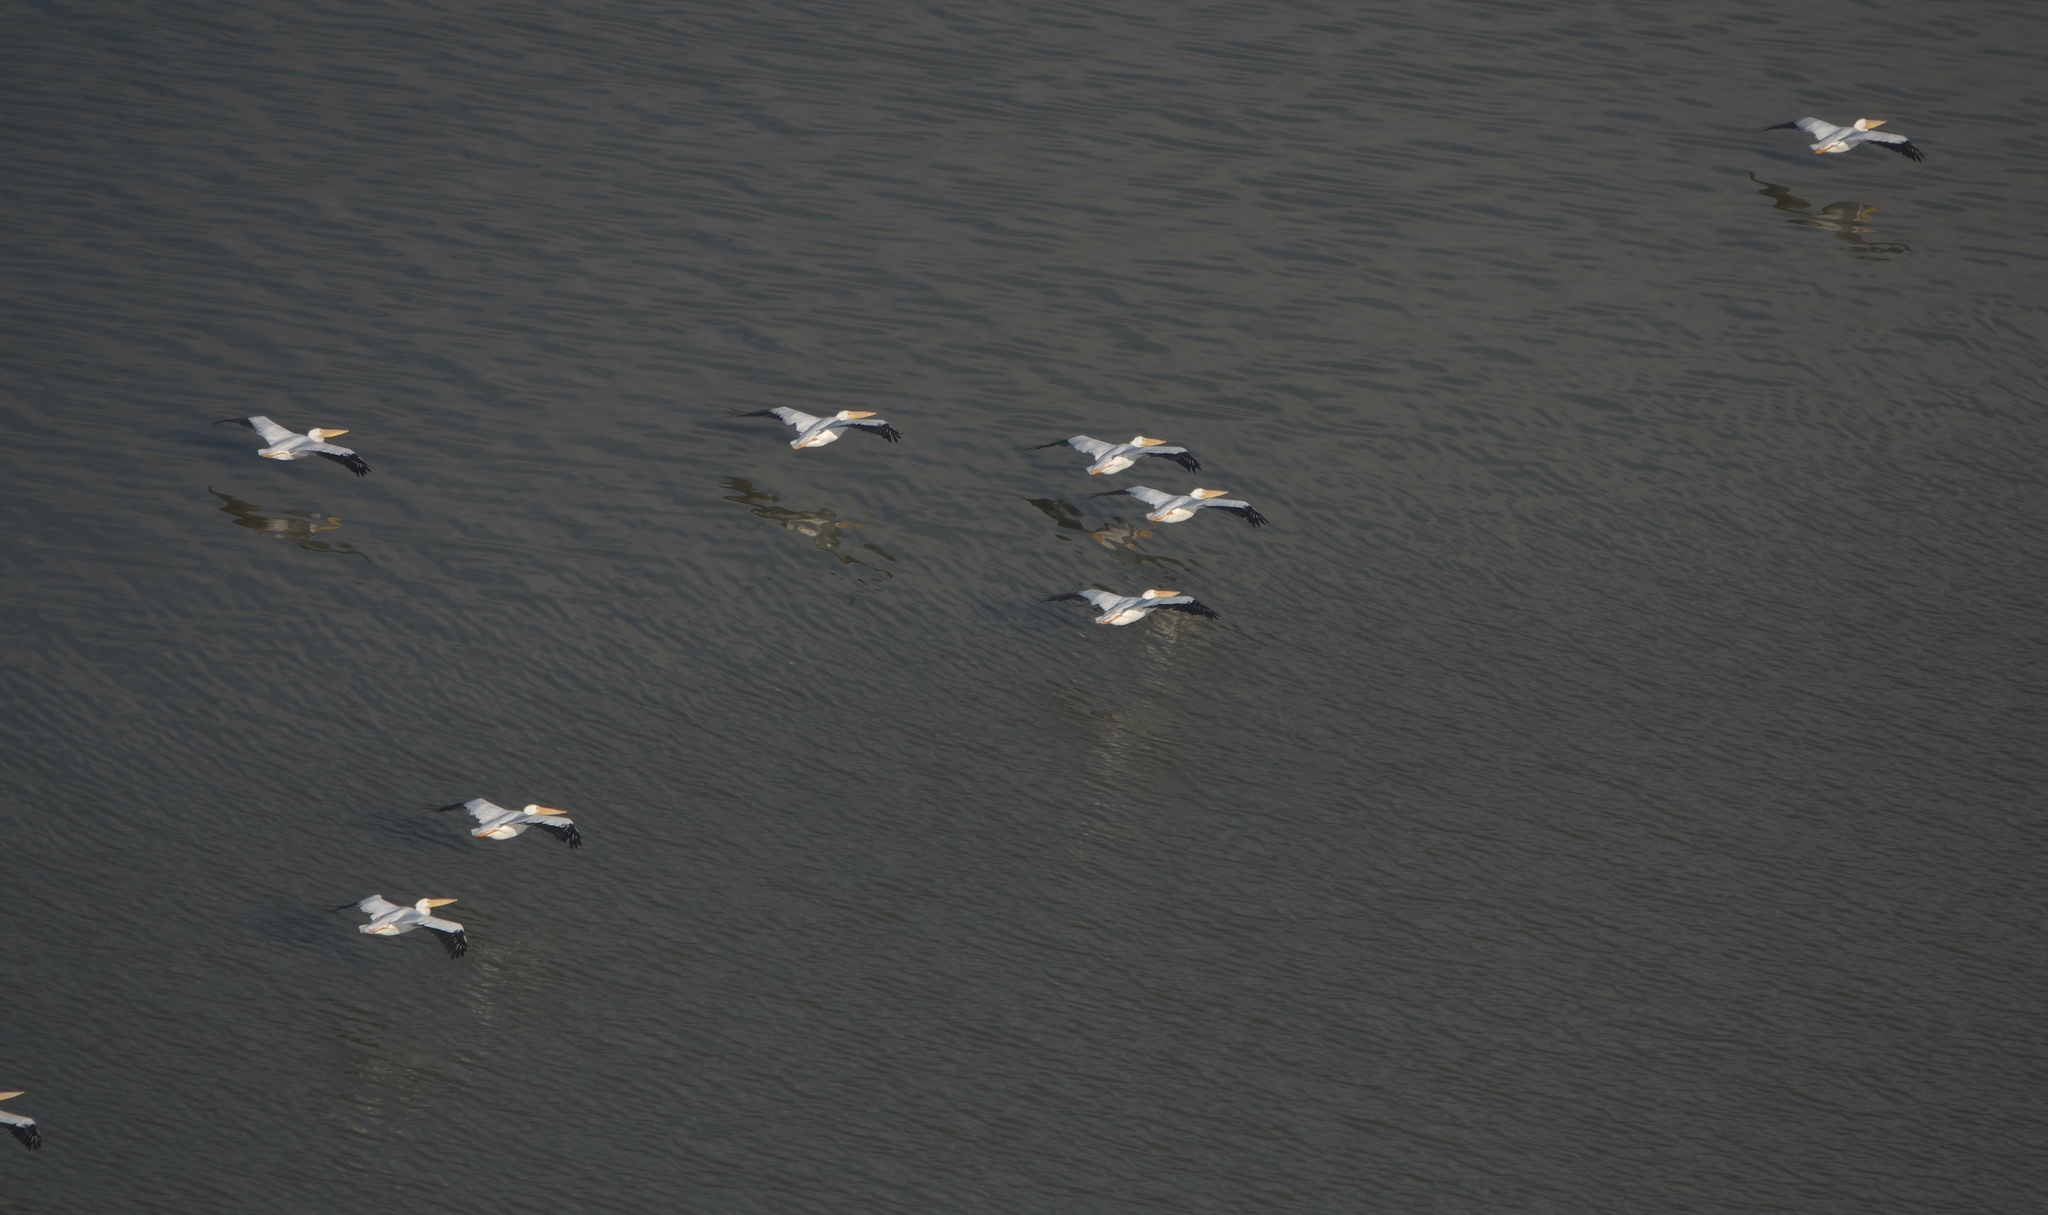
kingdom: Animalia
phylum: Chordata
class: Aves
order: Pelecaniformes
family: Pelecanidae
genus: Pelecanus
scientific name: Pelecanus erythrorhynchos
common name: American white pelican
